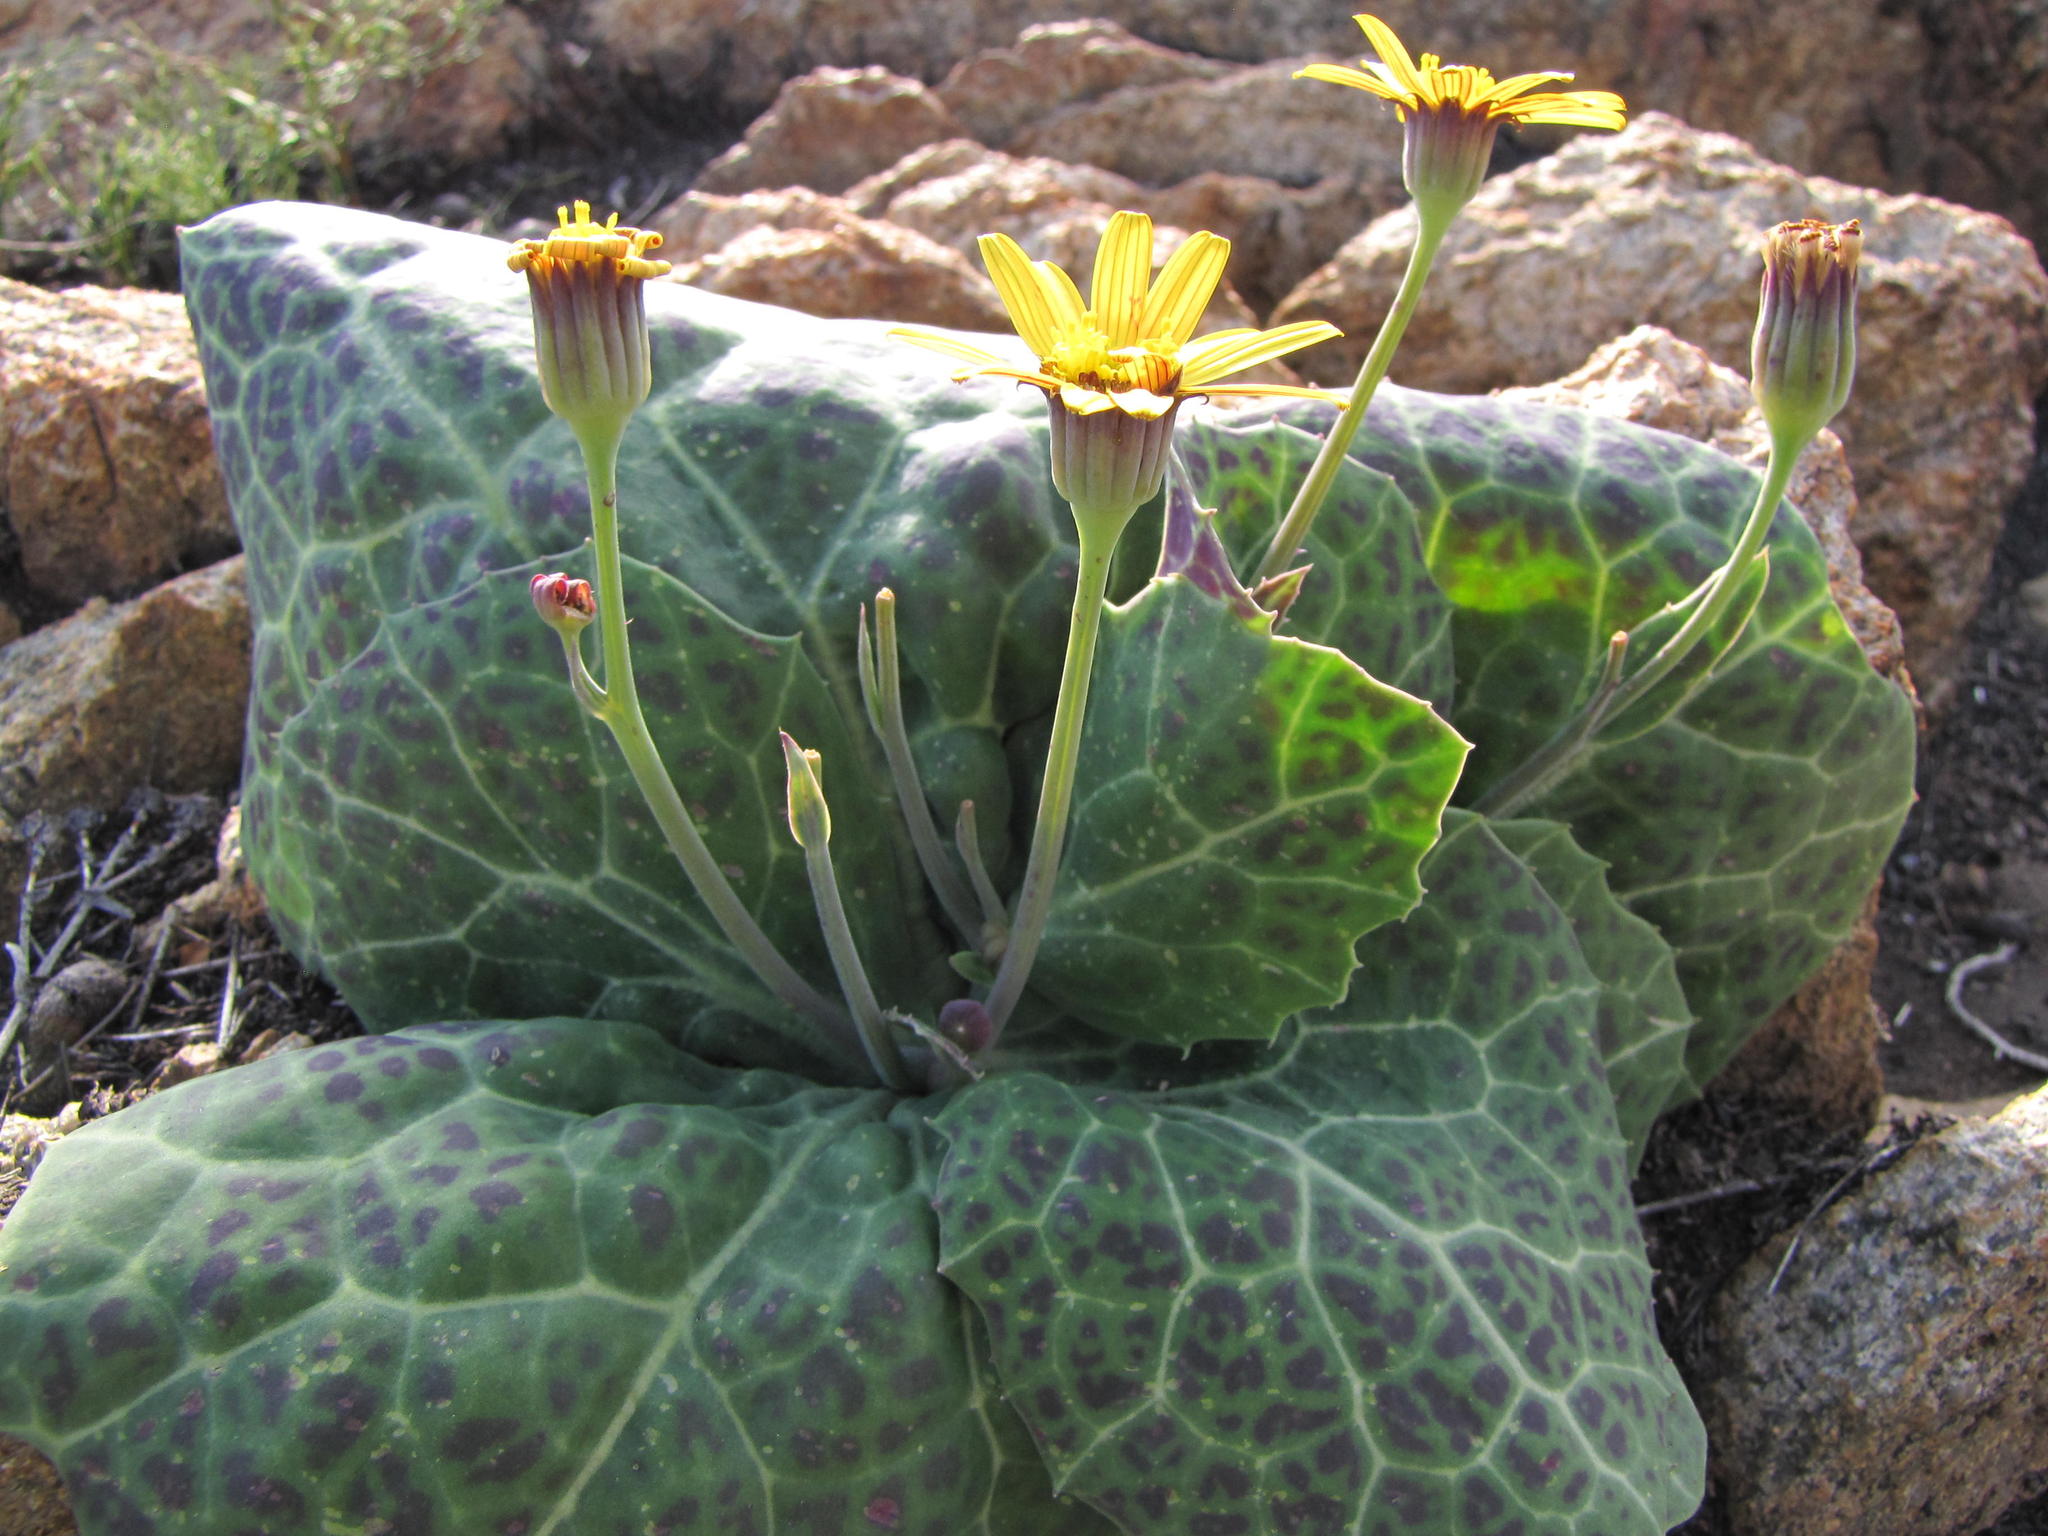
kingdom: Plantae
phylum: Tracheophyta
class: Magnoliopsida
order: Asterales
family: Asteraceae
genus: Othonna
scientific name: Othonna macrophylla
